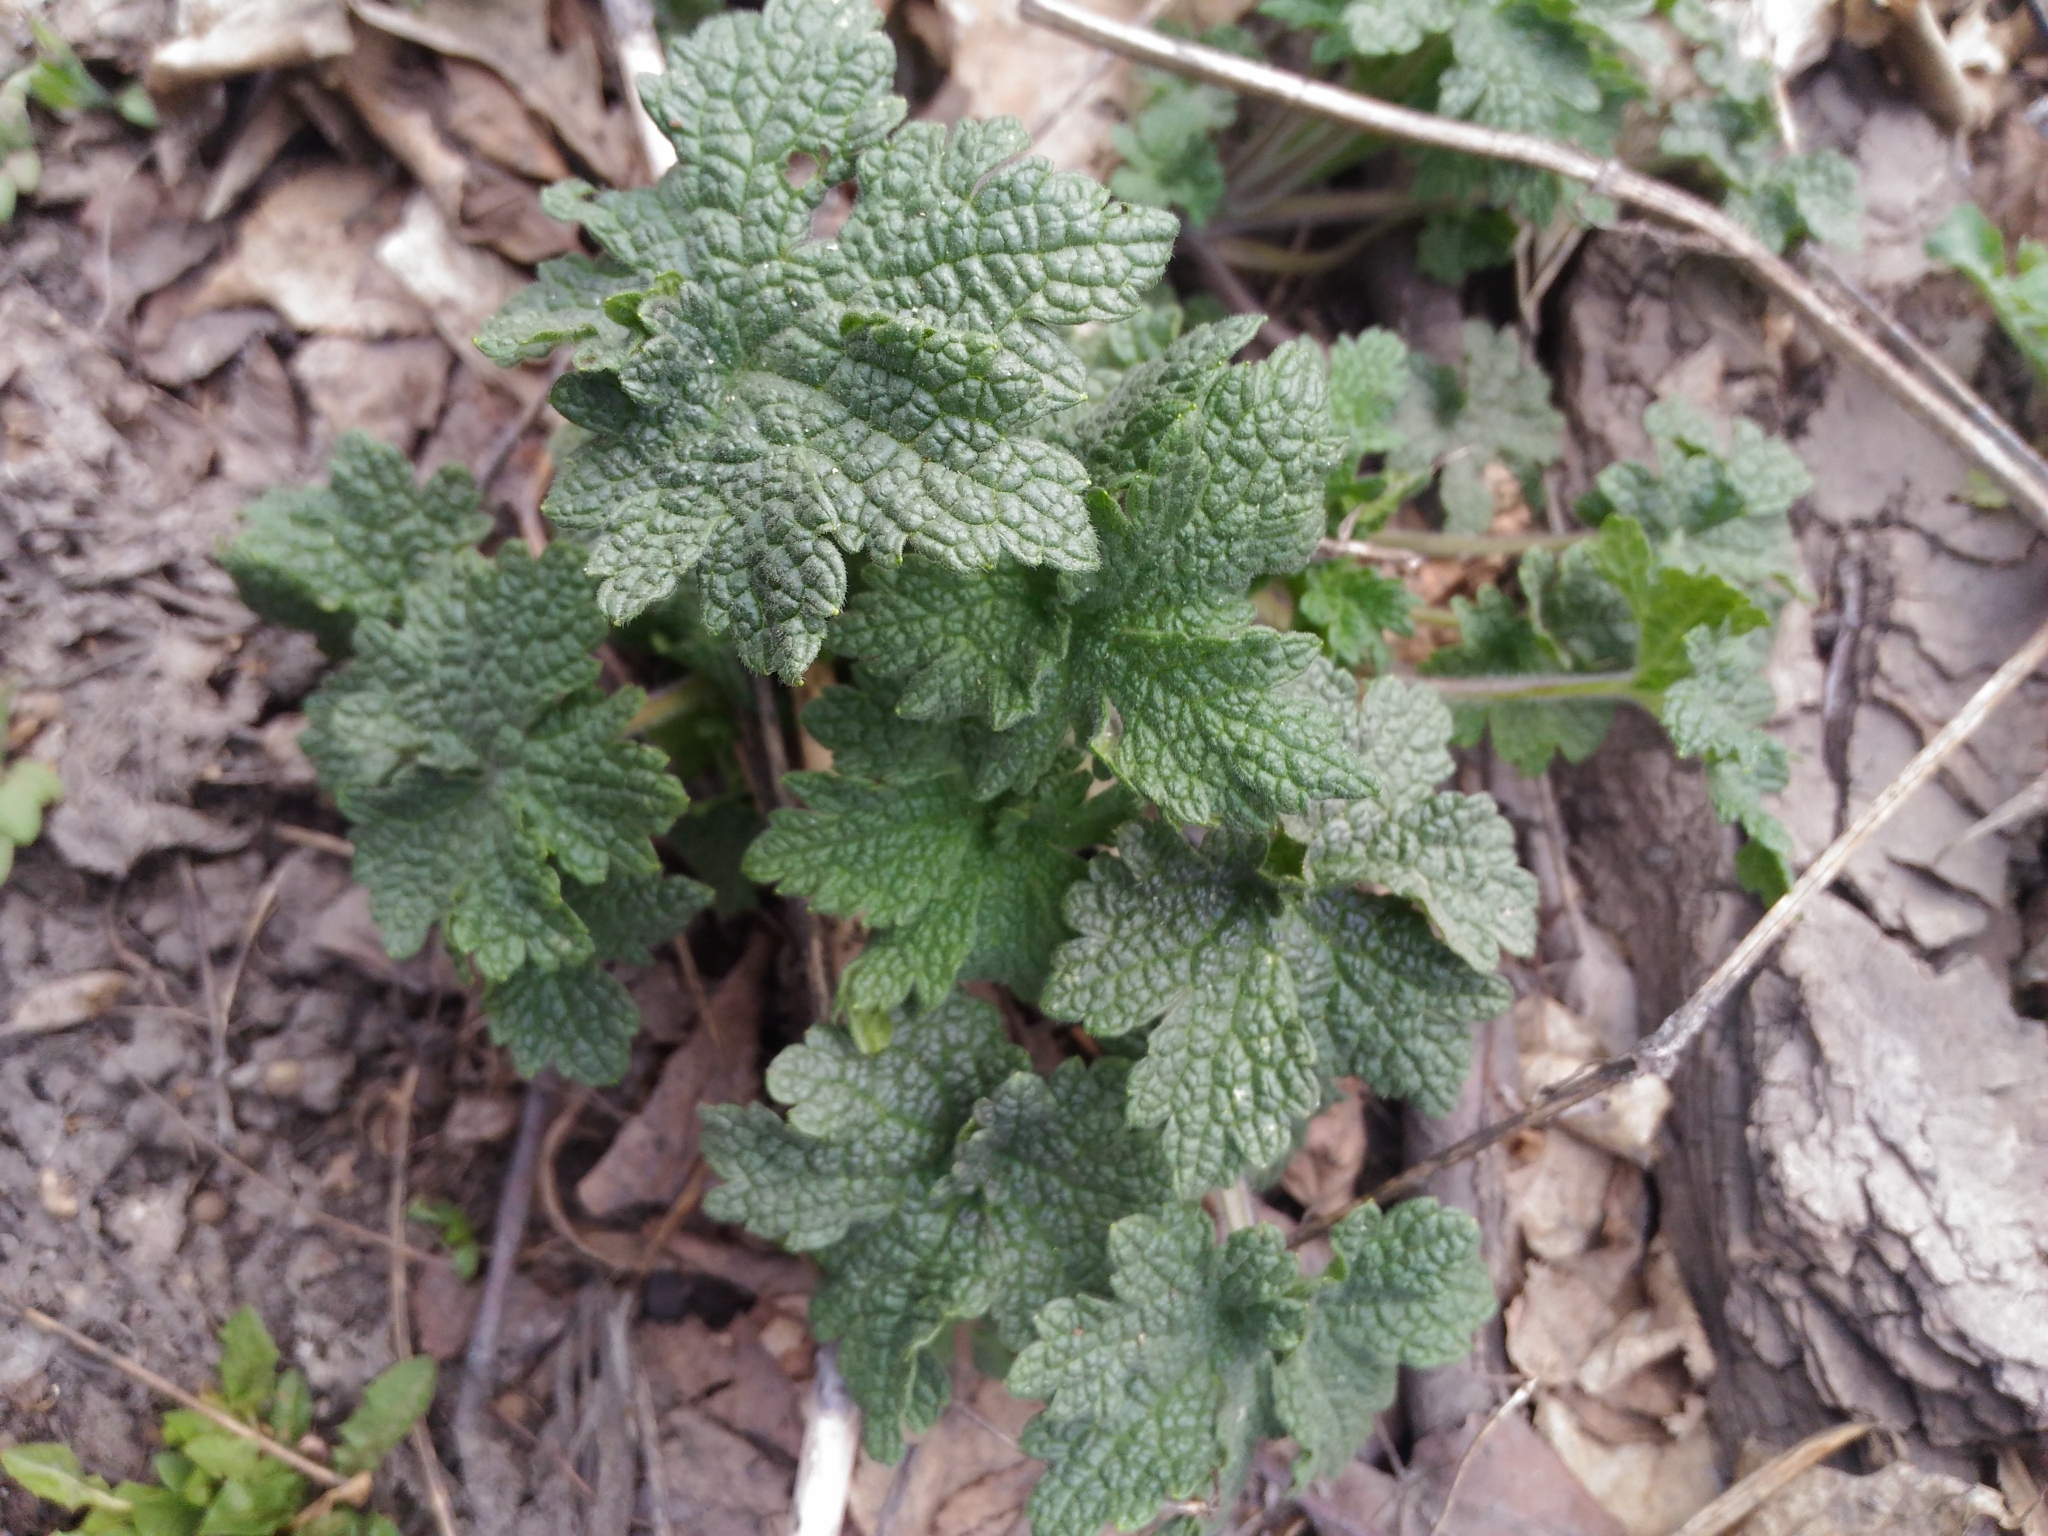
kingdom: Plantae
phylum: Tracheophyta
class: Magnoliopsida
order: Lamiales
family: Lamiaceae
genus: Leonurus
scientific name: Leonurus quinquelobatus
